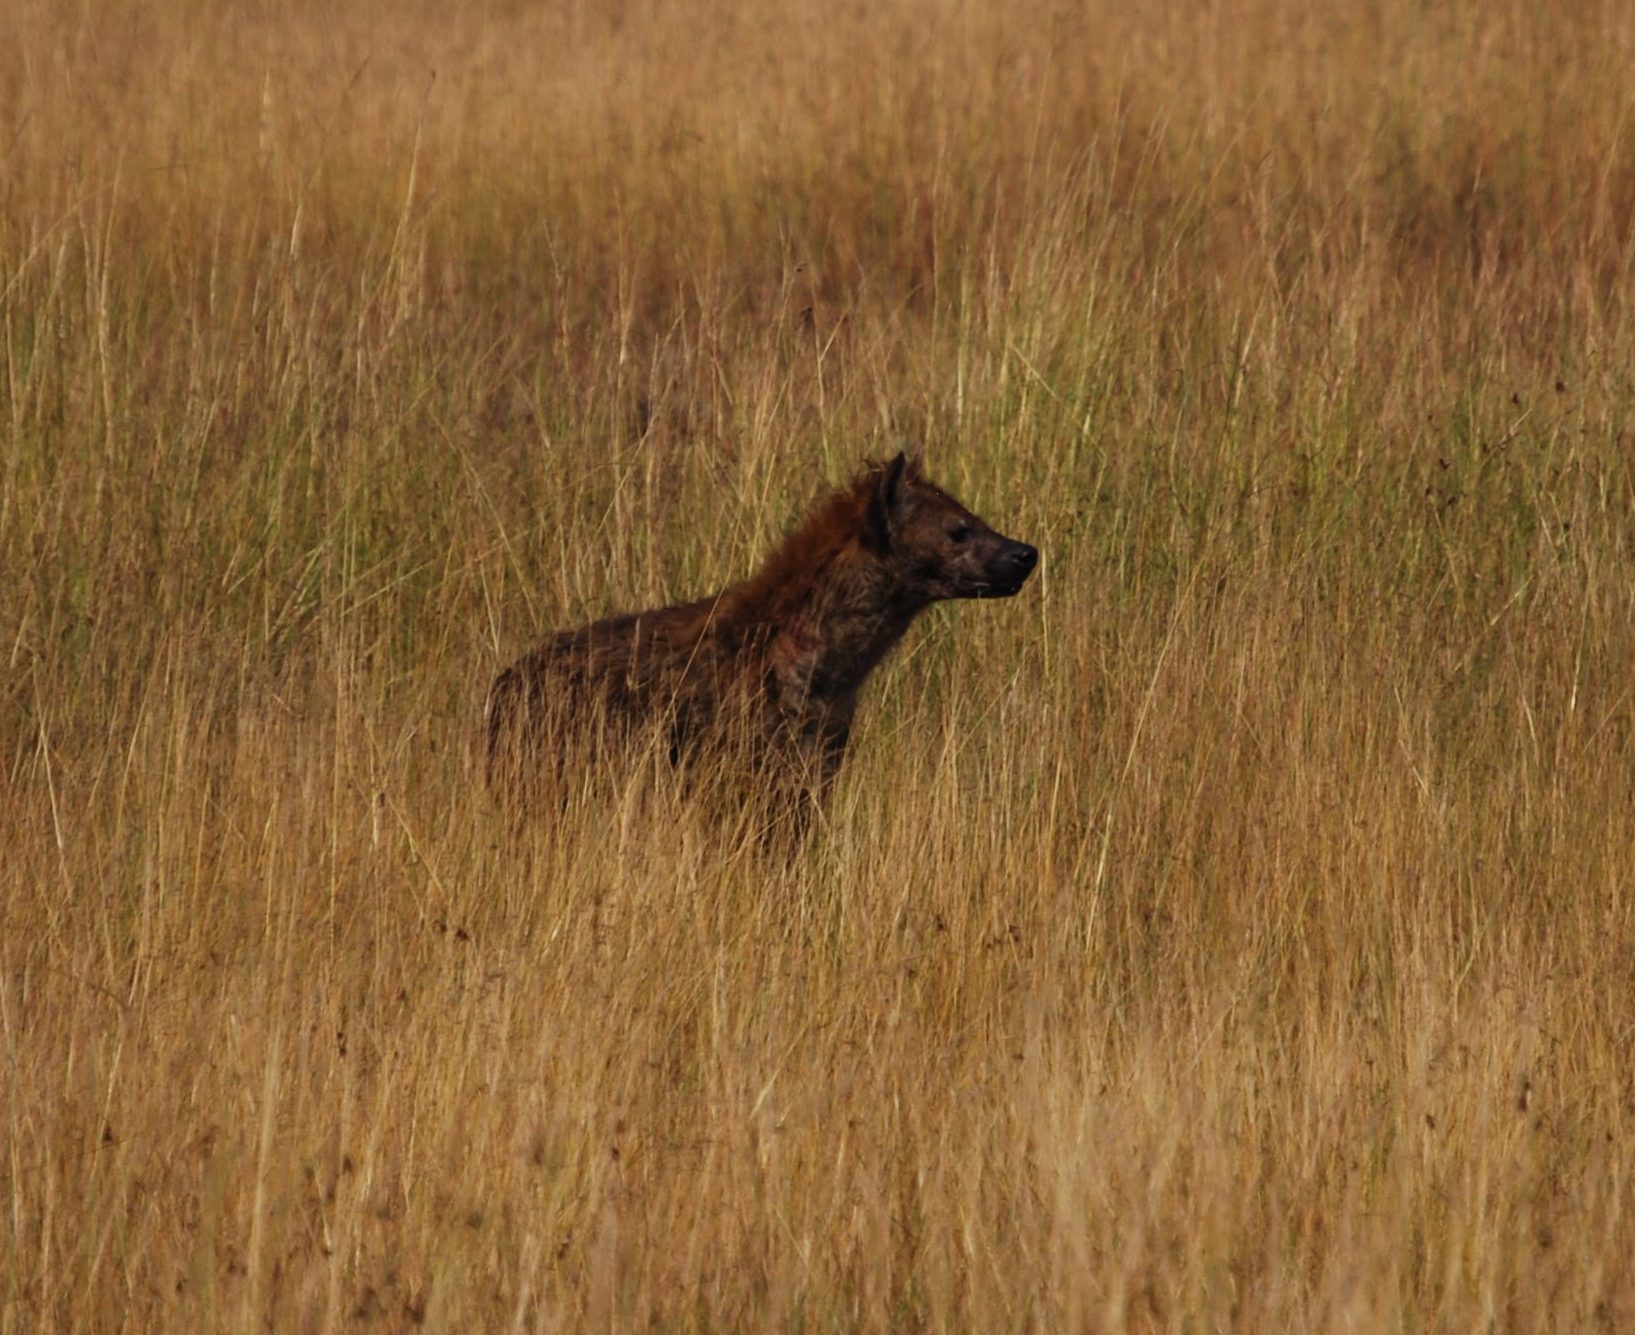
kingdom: Animalia
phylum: Chordata
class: Mammalia
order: Carnivora
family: Hyaenidae
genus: Crocuta
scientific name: Crocuta crocuta
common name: Spotted hyaena
